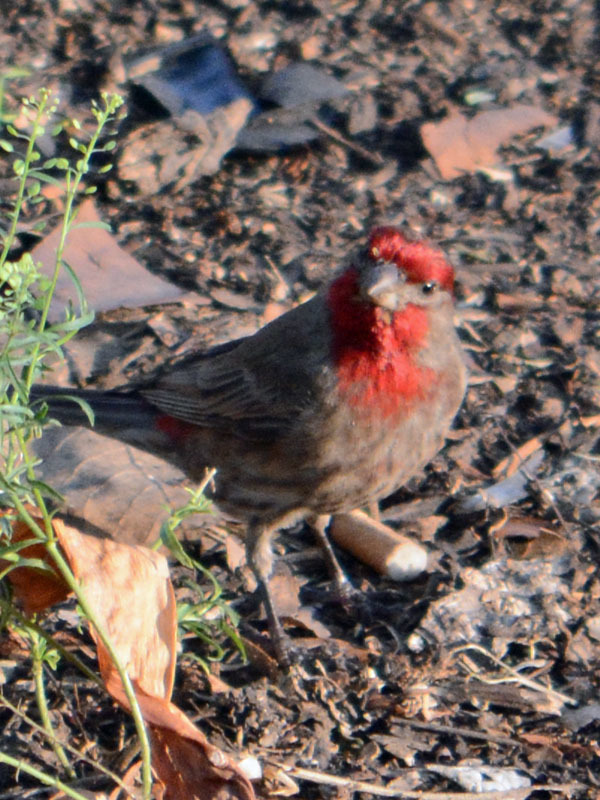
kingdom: Animalia
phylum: Chordata
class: Aves
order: Passeriformes
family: Fringillidae
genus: Haemorhous
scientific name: Haemorhous mexicanus
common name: House finch
